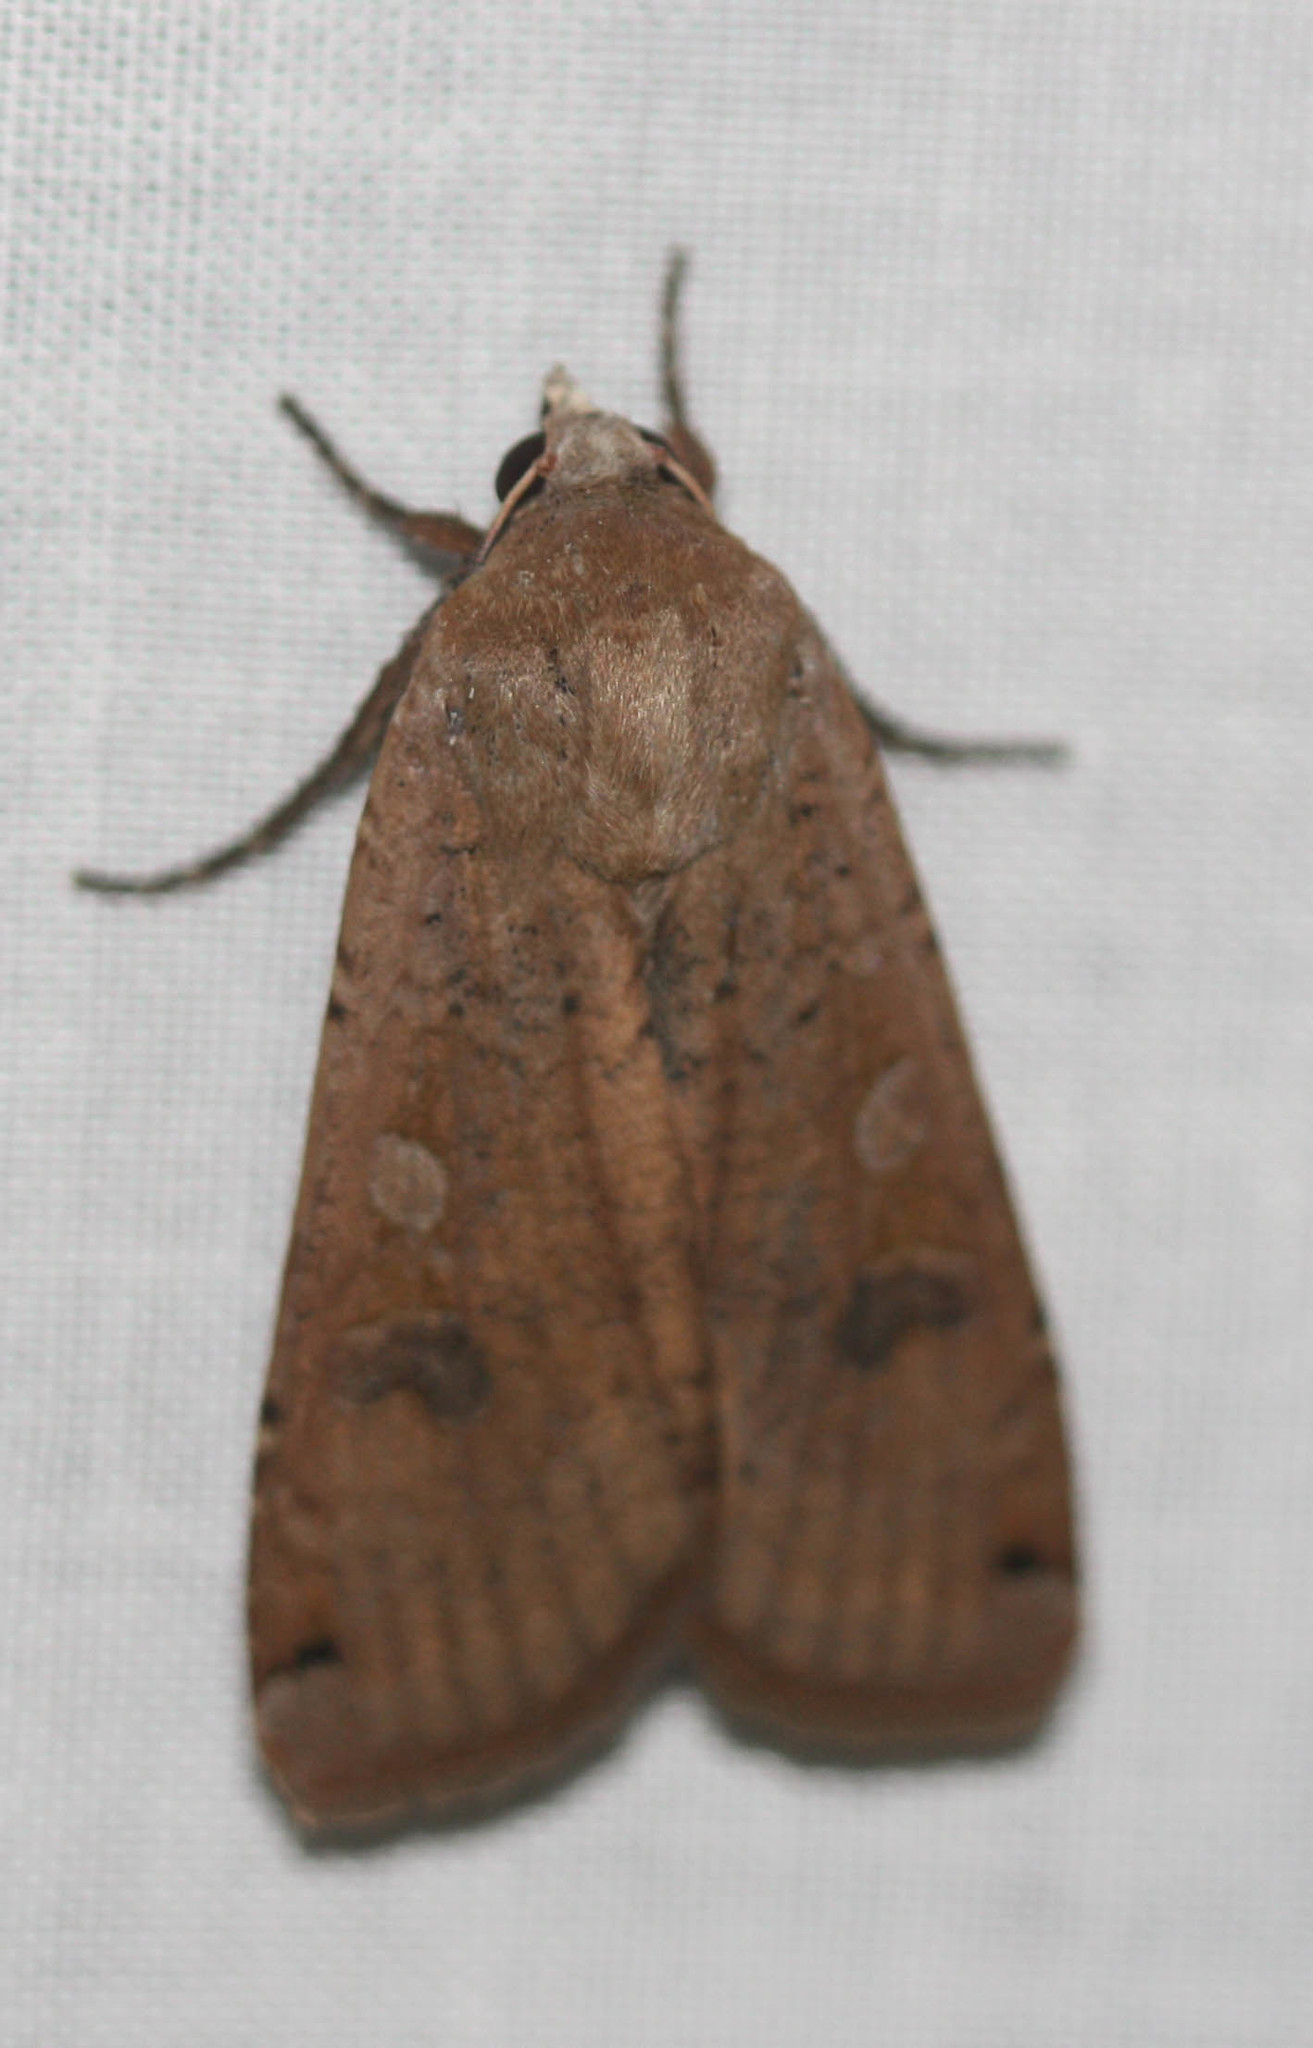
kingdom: Animalia
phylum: Arthropoda
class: Insecta
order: Lepidoptera
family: Noctuidae
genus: Noctua
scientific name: Noctua pronuba
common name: Large yellow underwing
